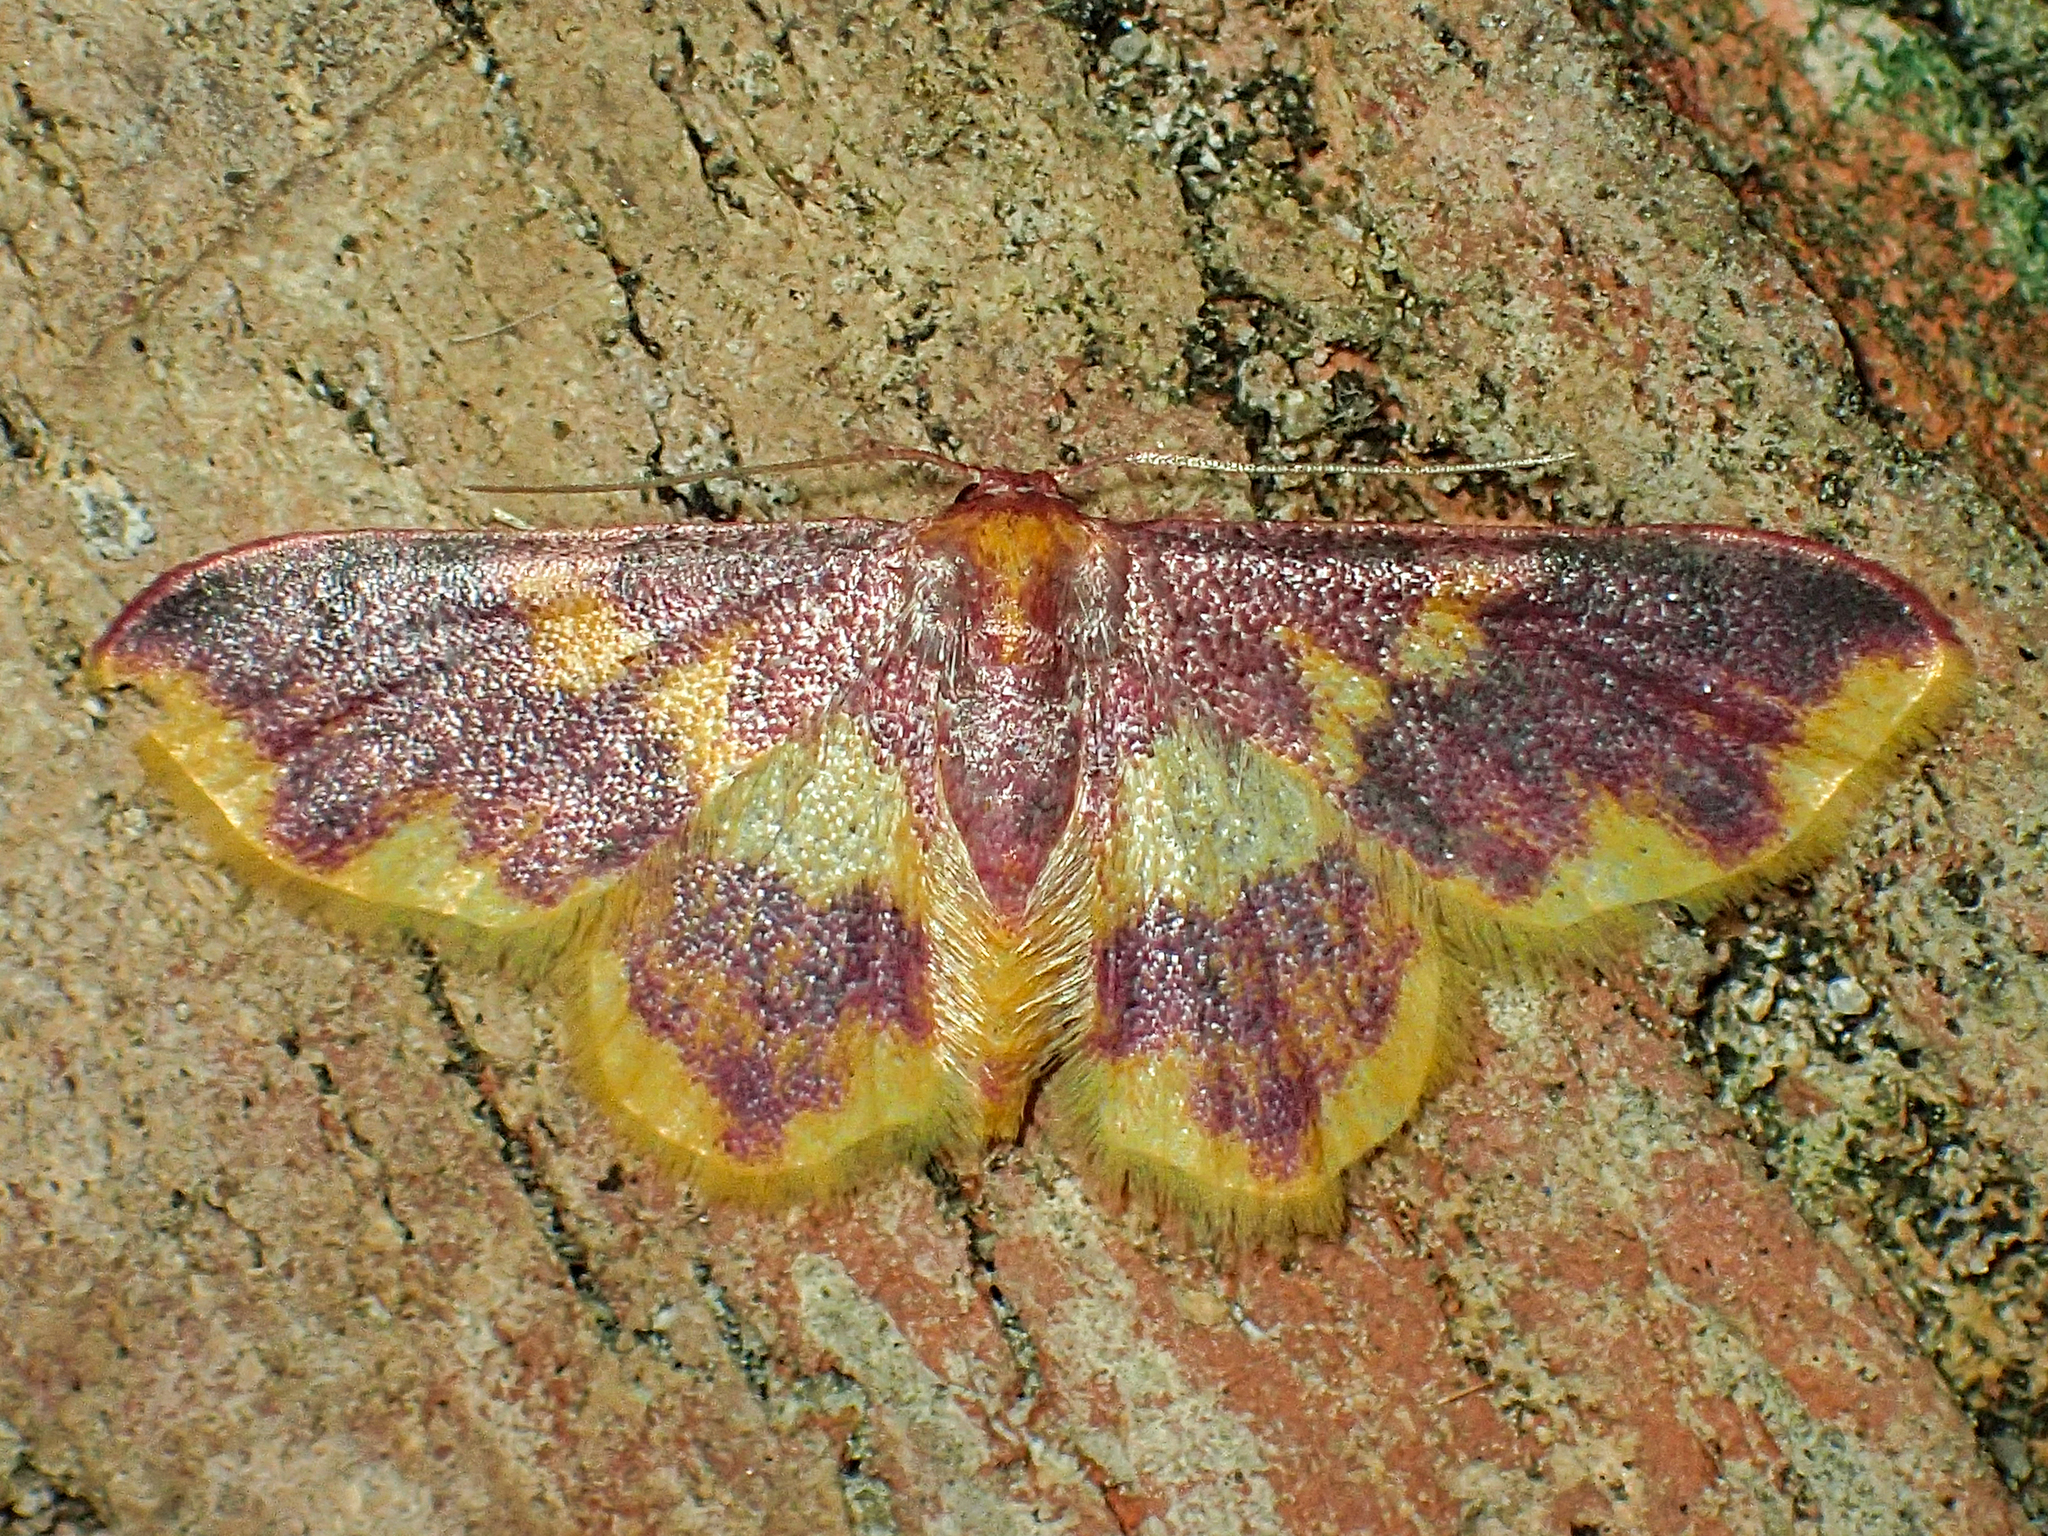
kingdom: Animalia
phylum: Arthropoda
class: Insecta
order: Lepidoptera
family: Geometridae
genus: Lophosis
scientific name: Lophosis labeculata
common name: Stained lophosis moth
